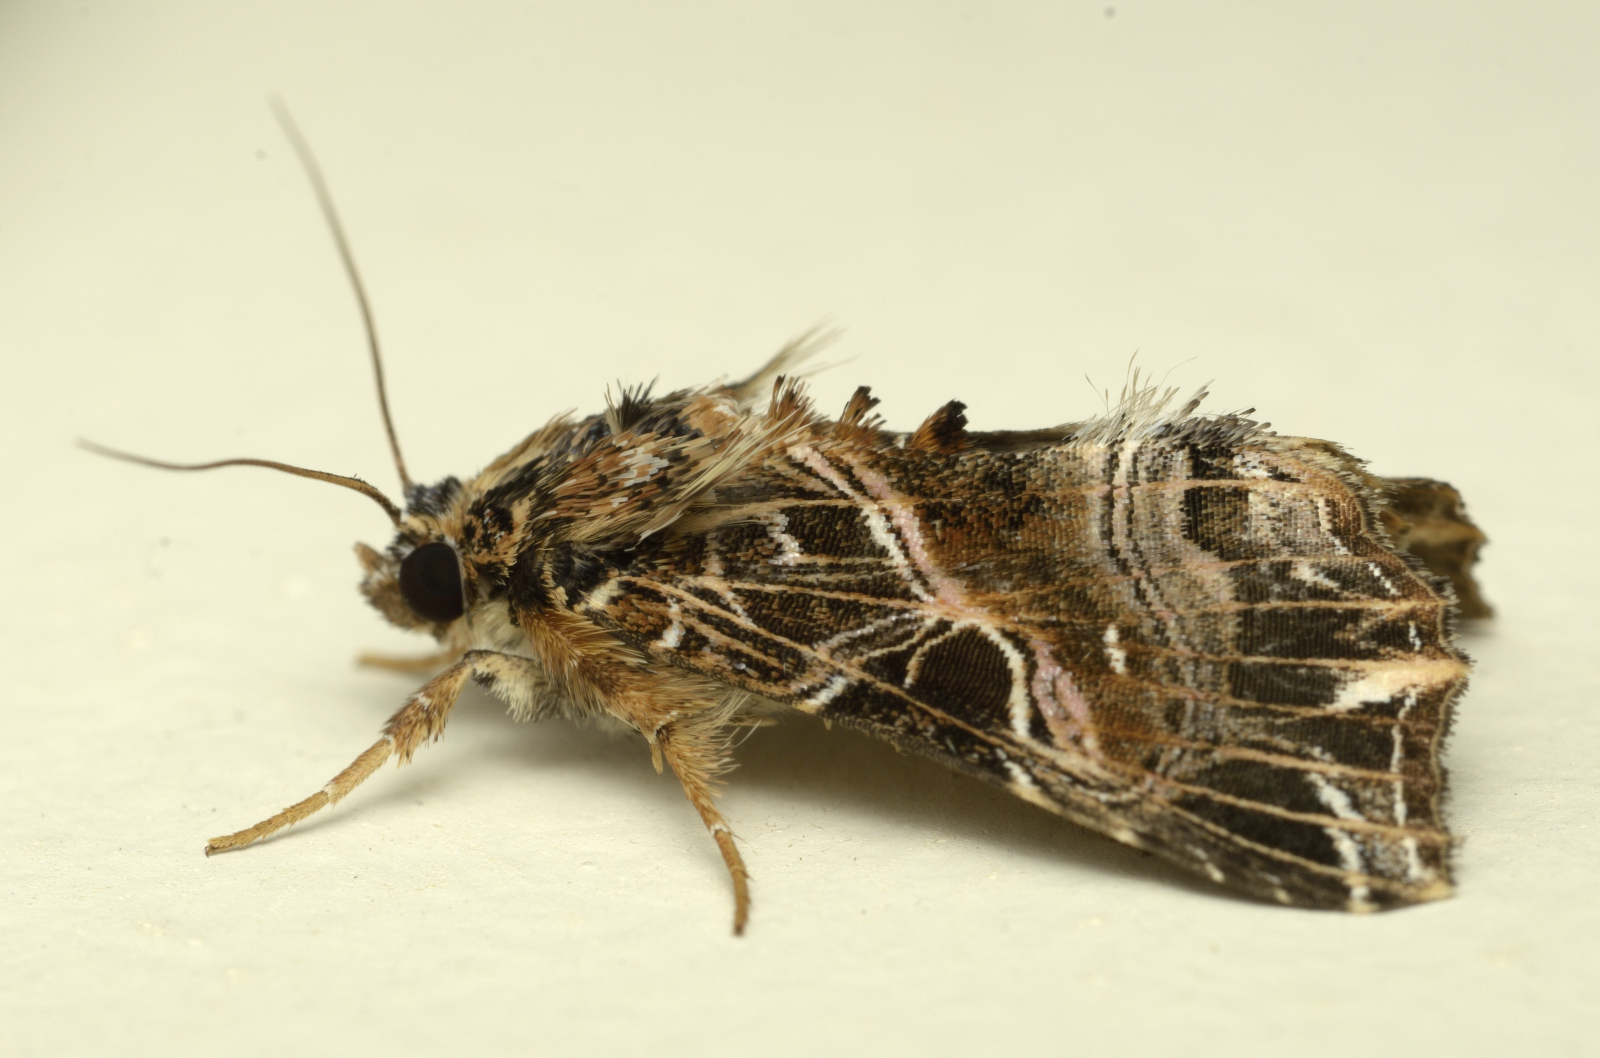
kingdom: Animalia
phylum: Arthropoda
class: Insecta
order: Lepidoptera
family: Noctuidae
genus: Callopistria
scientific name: Callopistria maillardi
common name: Cutworm
